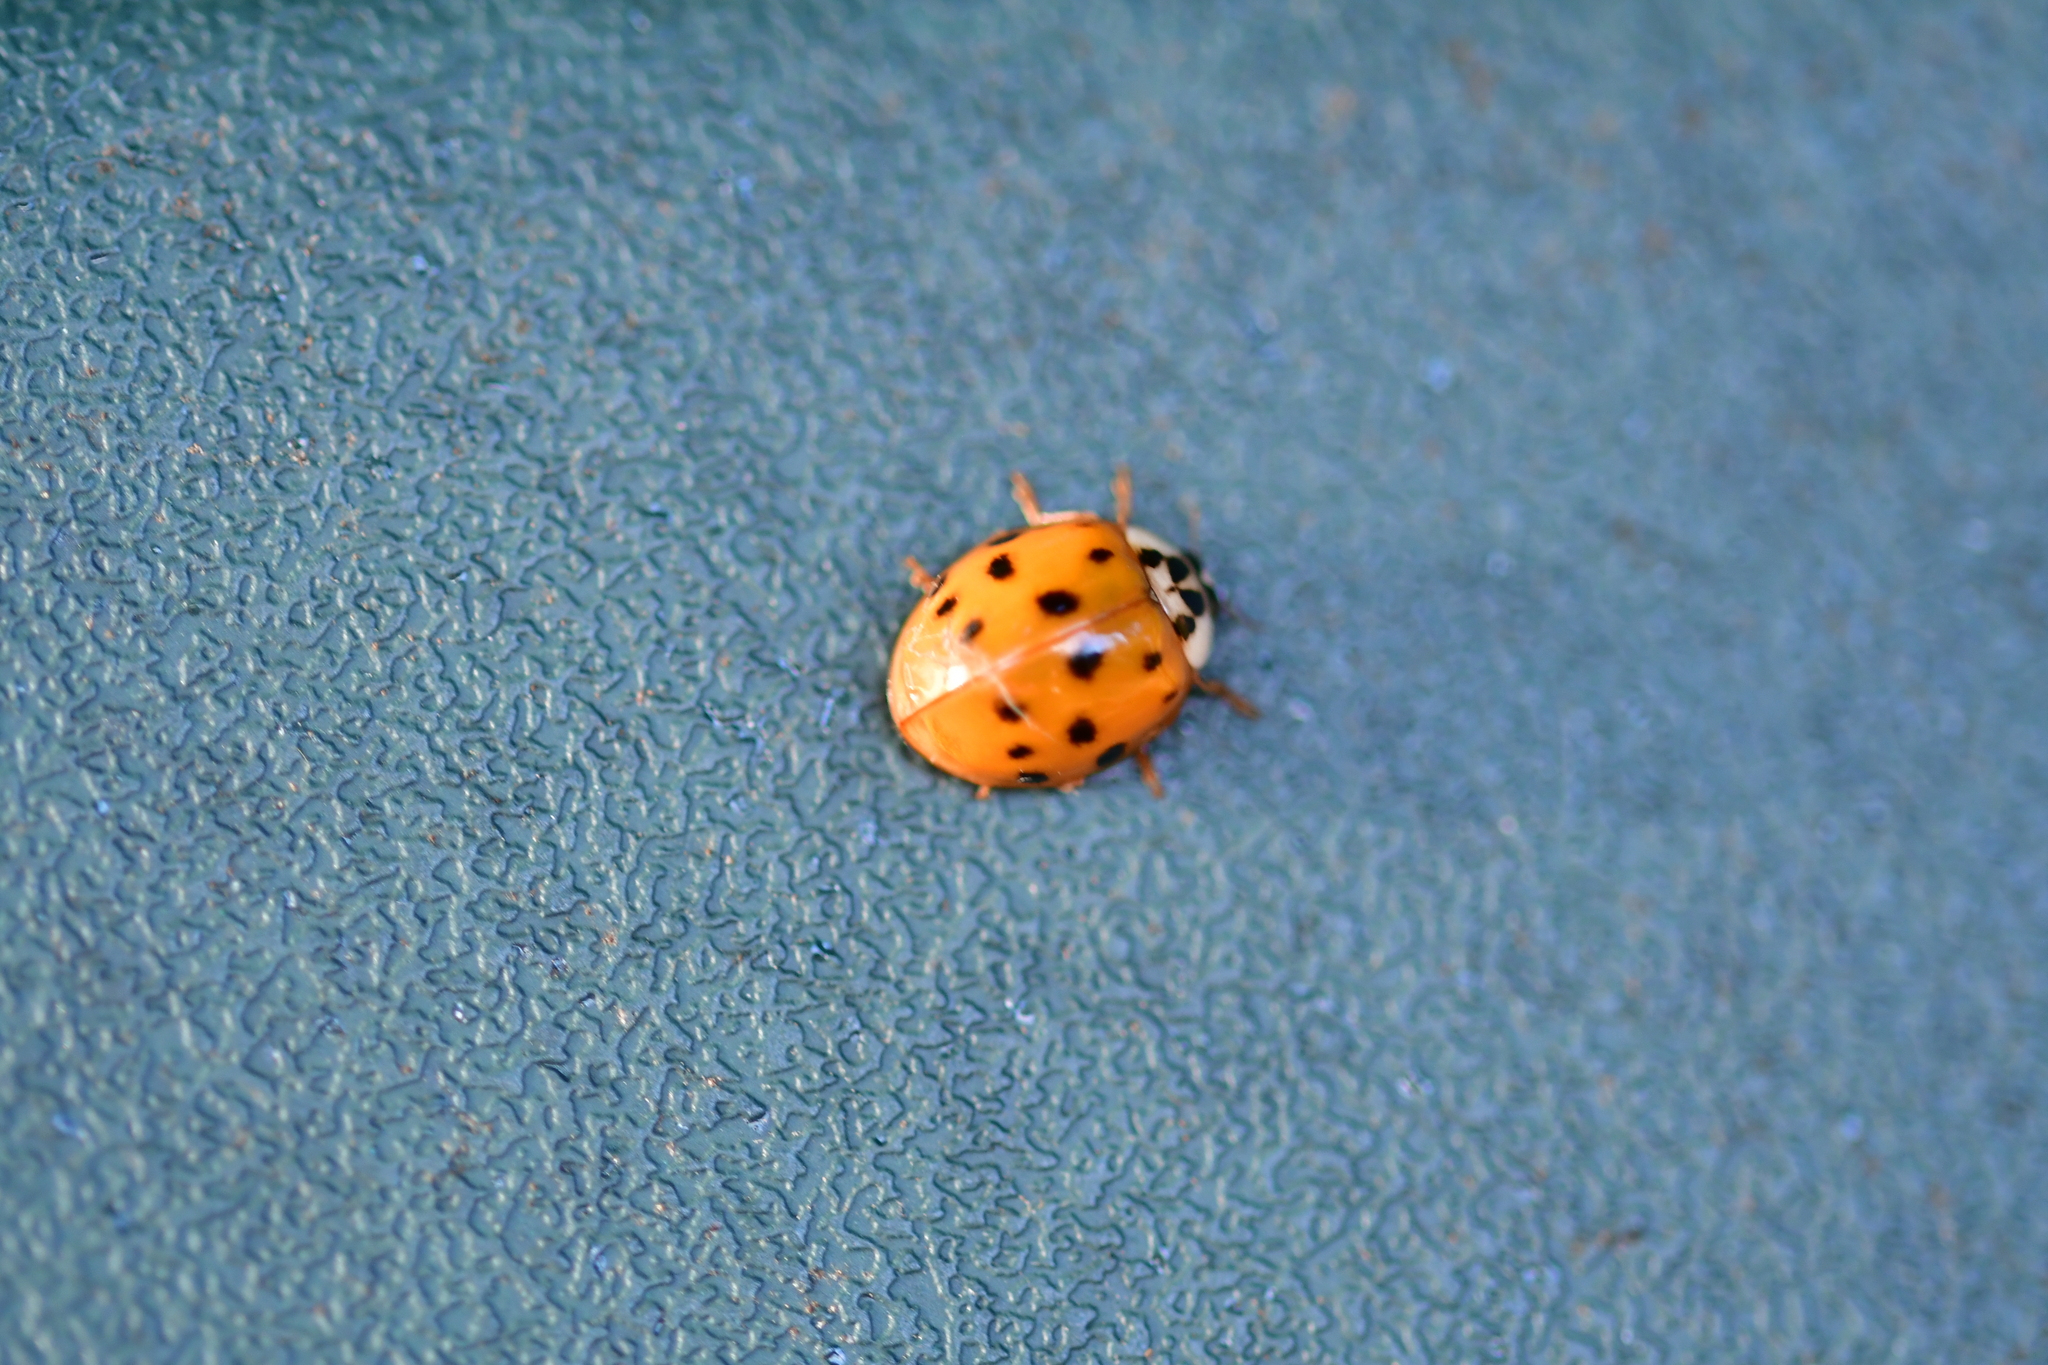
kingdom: Animalia
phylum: Arthropoda
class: Insecta
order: Coleoptera
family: Coccinellidae
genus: Harmonia
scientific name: Harmonia axyridis
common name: Harlequin ladybird
